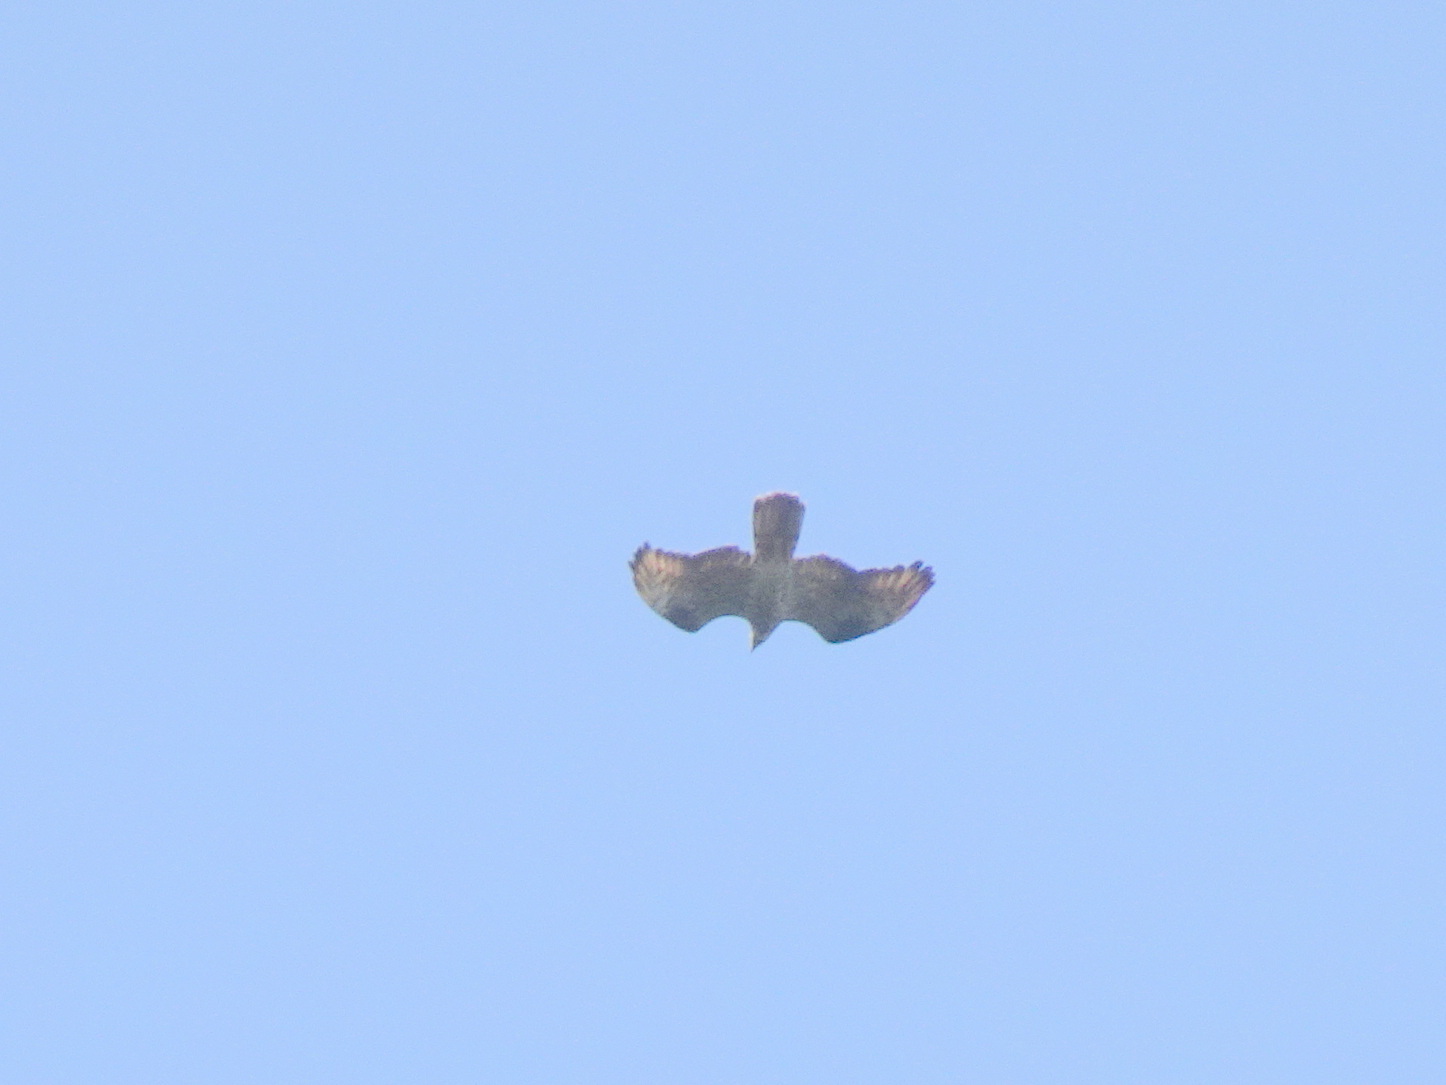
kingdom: Animalia
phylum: Chordata
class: Aves
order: Accipitriformes
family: Accipitridae
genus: Pernis
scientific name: Pernis apivorus
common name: European honey buzzard
